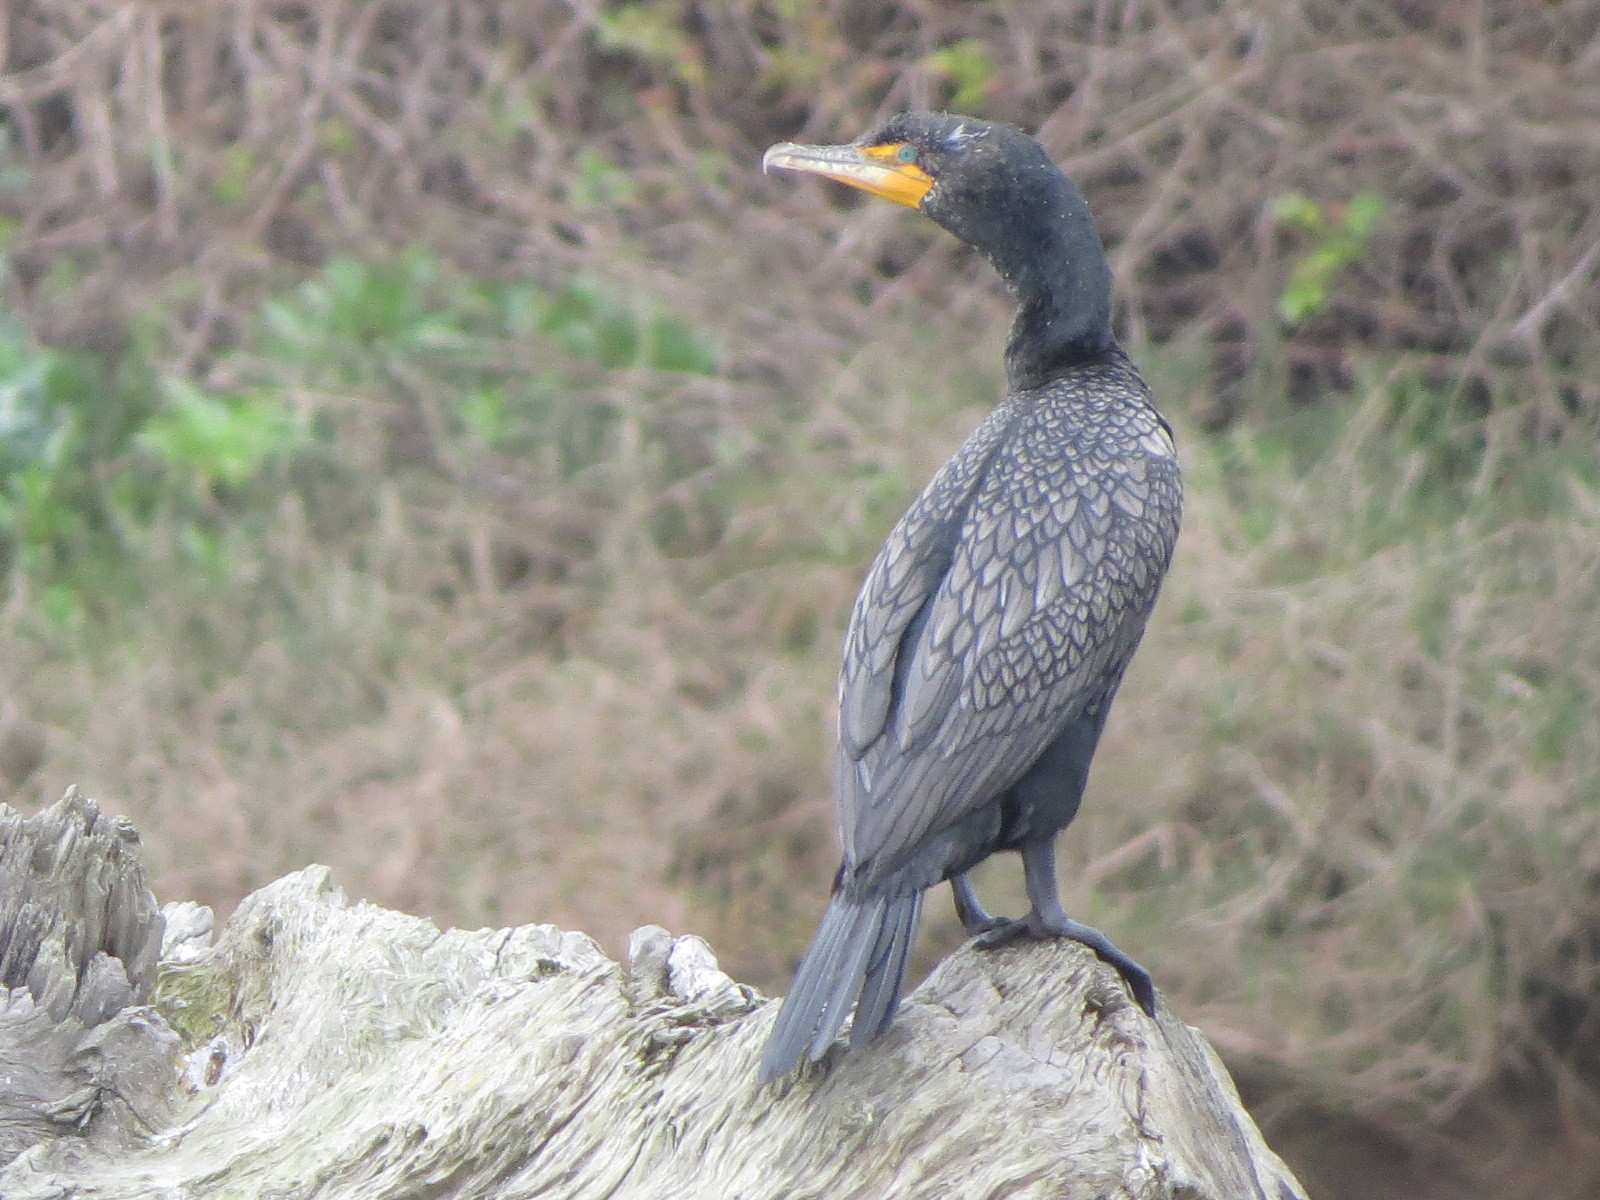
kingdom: Animalia
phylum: Chordata
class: Aves
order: Suliformes
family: Phalacrocoracidae
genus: Phalacrocorax
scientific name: Phalacrocorax auritus
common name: Double-crested cormorant
